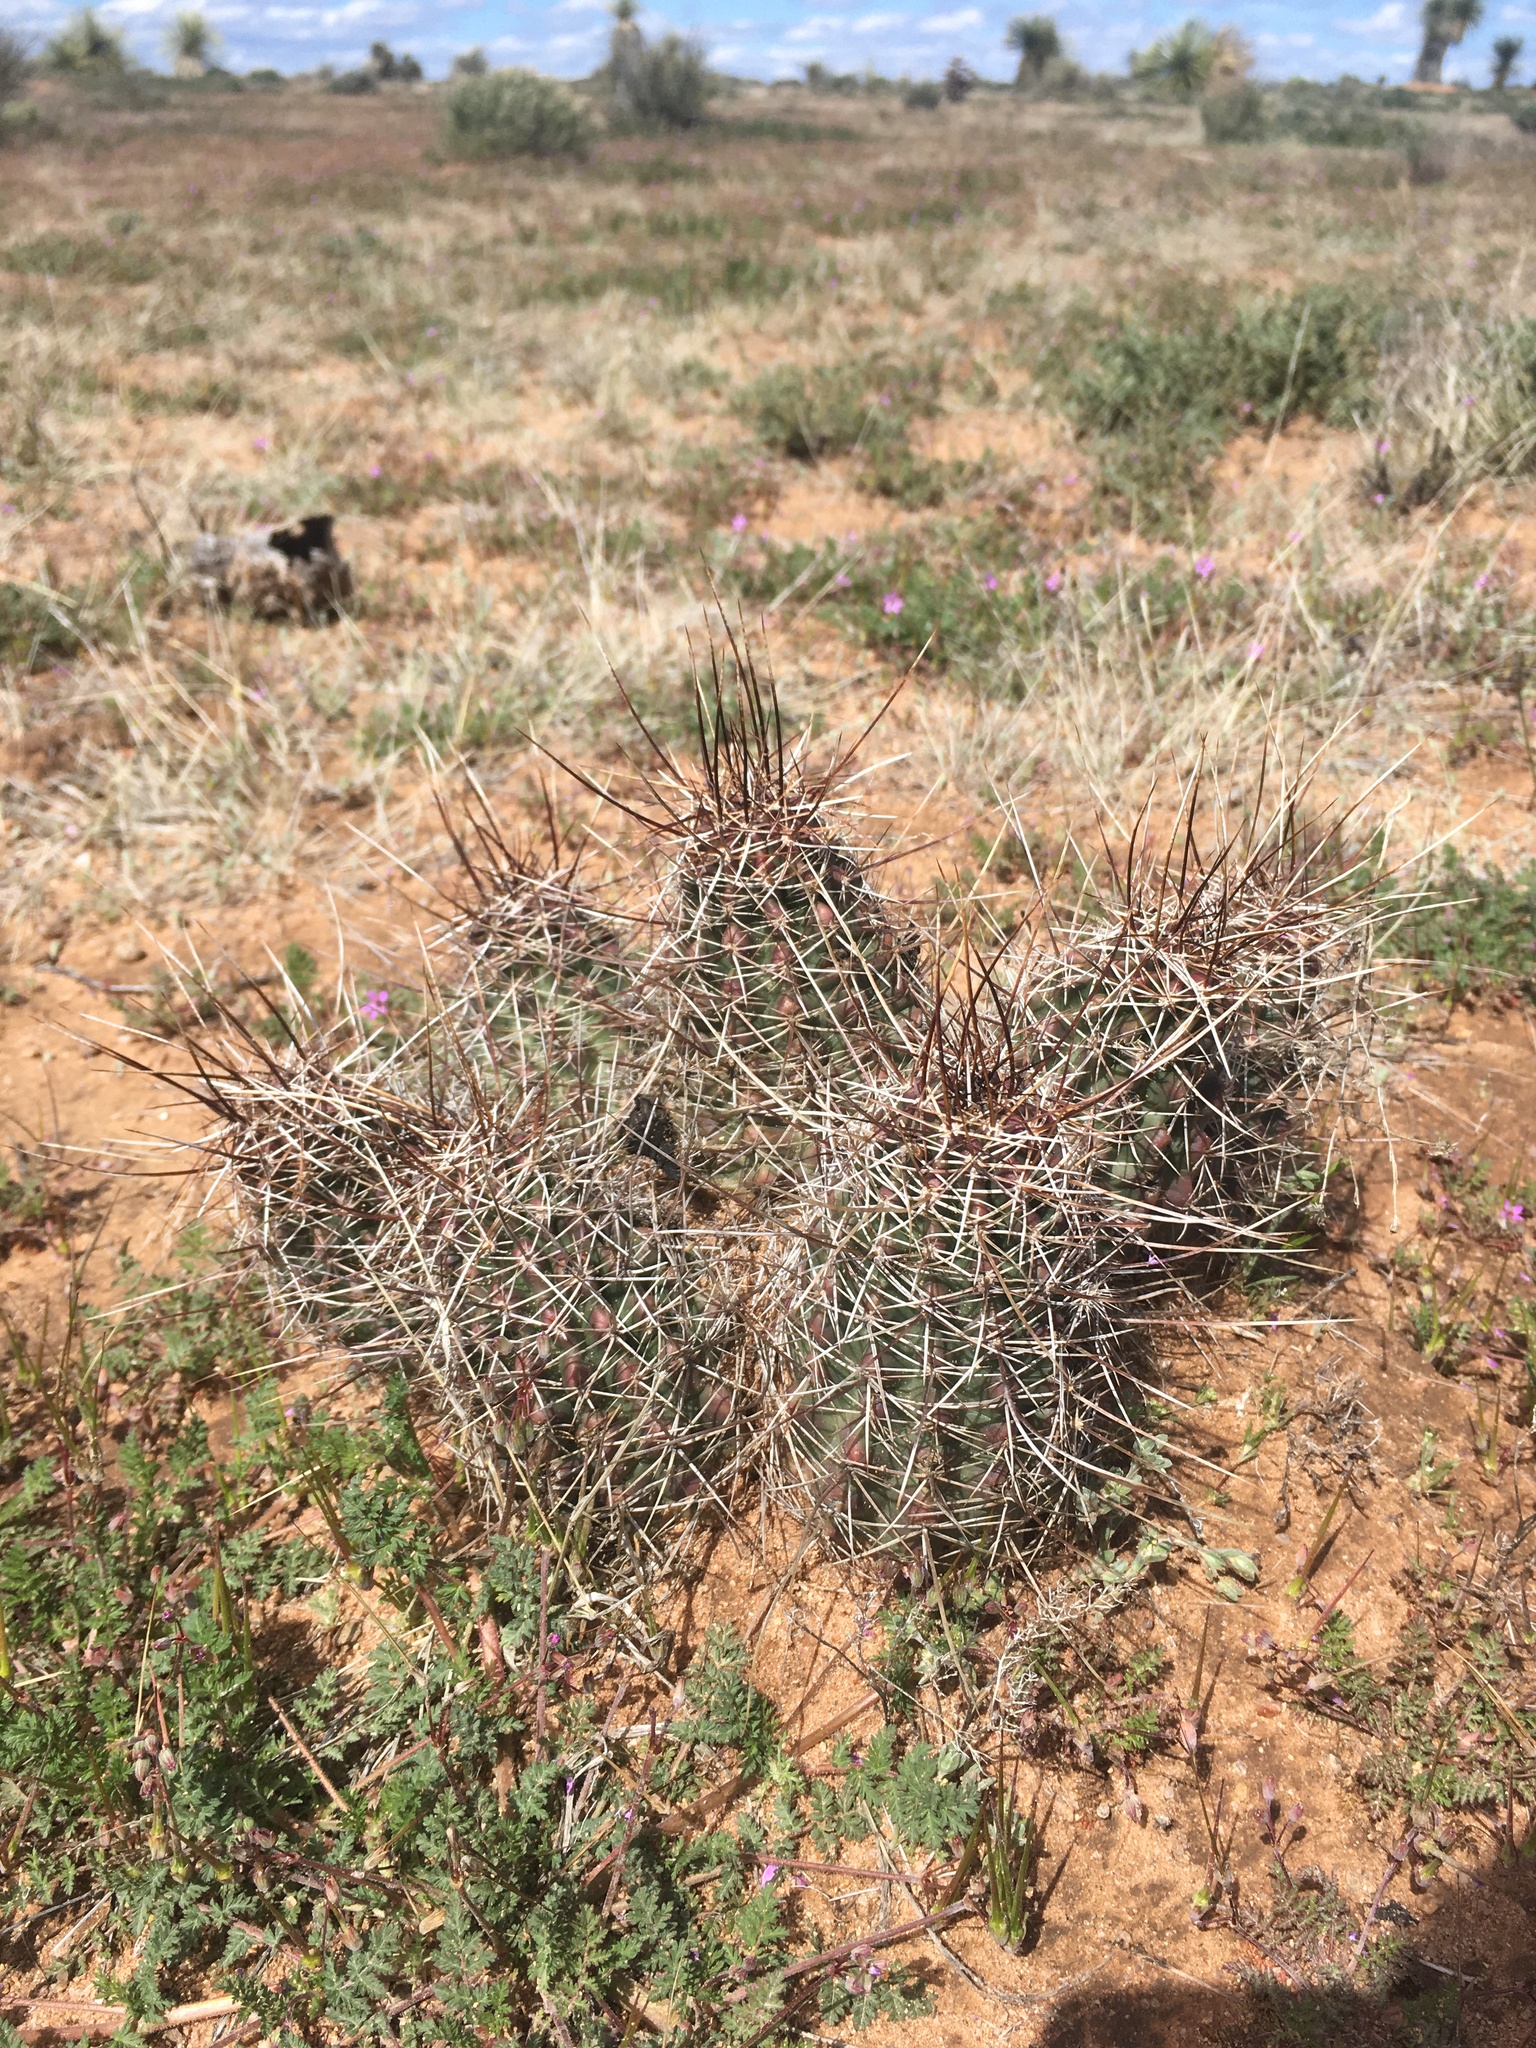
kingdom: Plantae
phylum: Tracheophyta
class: Magnoliopsida
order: Caryophyllales
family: Cactaceae
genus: Echinocereus
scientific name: Echinocereus fendleri
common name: Fendler's hedgehog cactus
